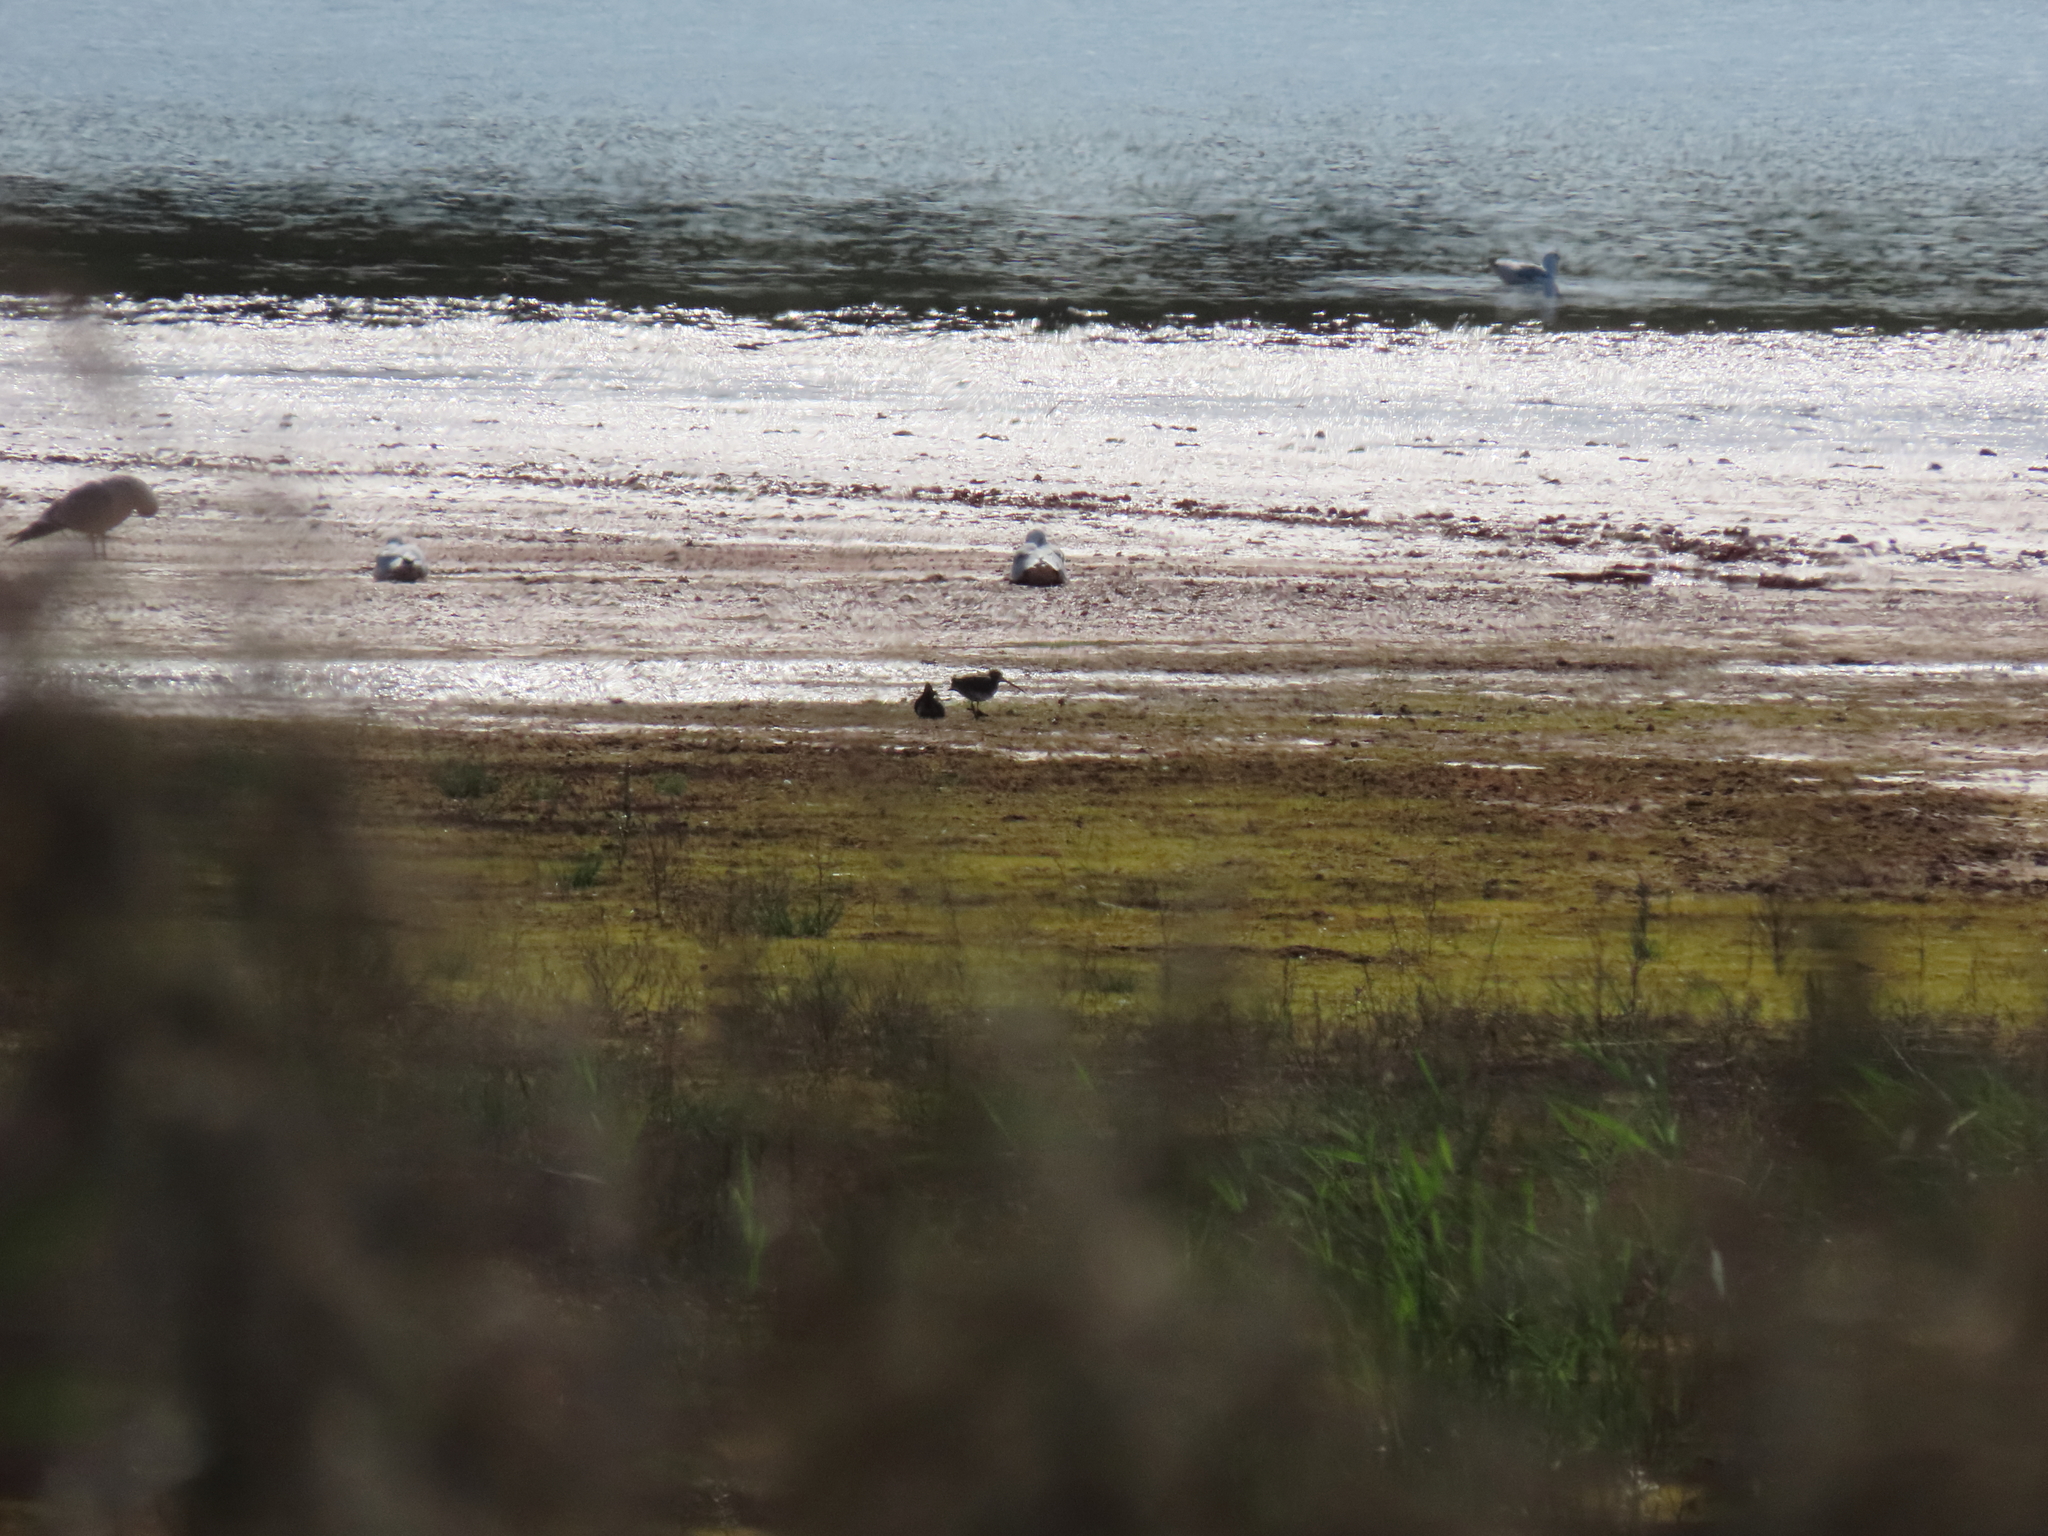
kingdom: Animalia
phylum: Chordata
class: Aves
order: Charadriiformes
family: Scolopacidae
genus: Gallinago
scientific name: Gallinago gallinago
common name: Common snipe
